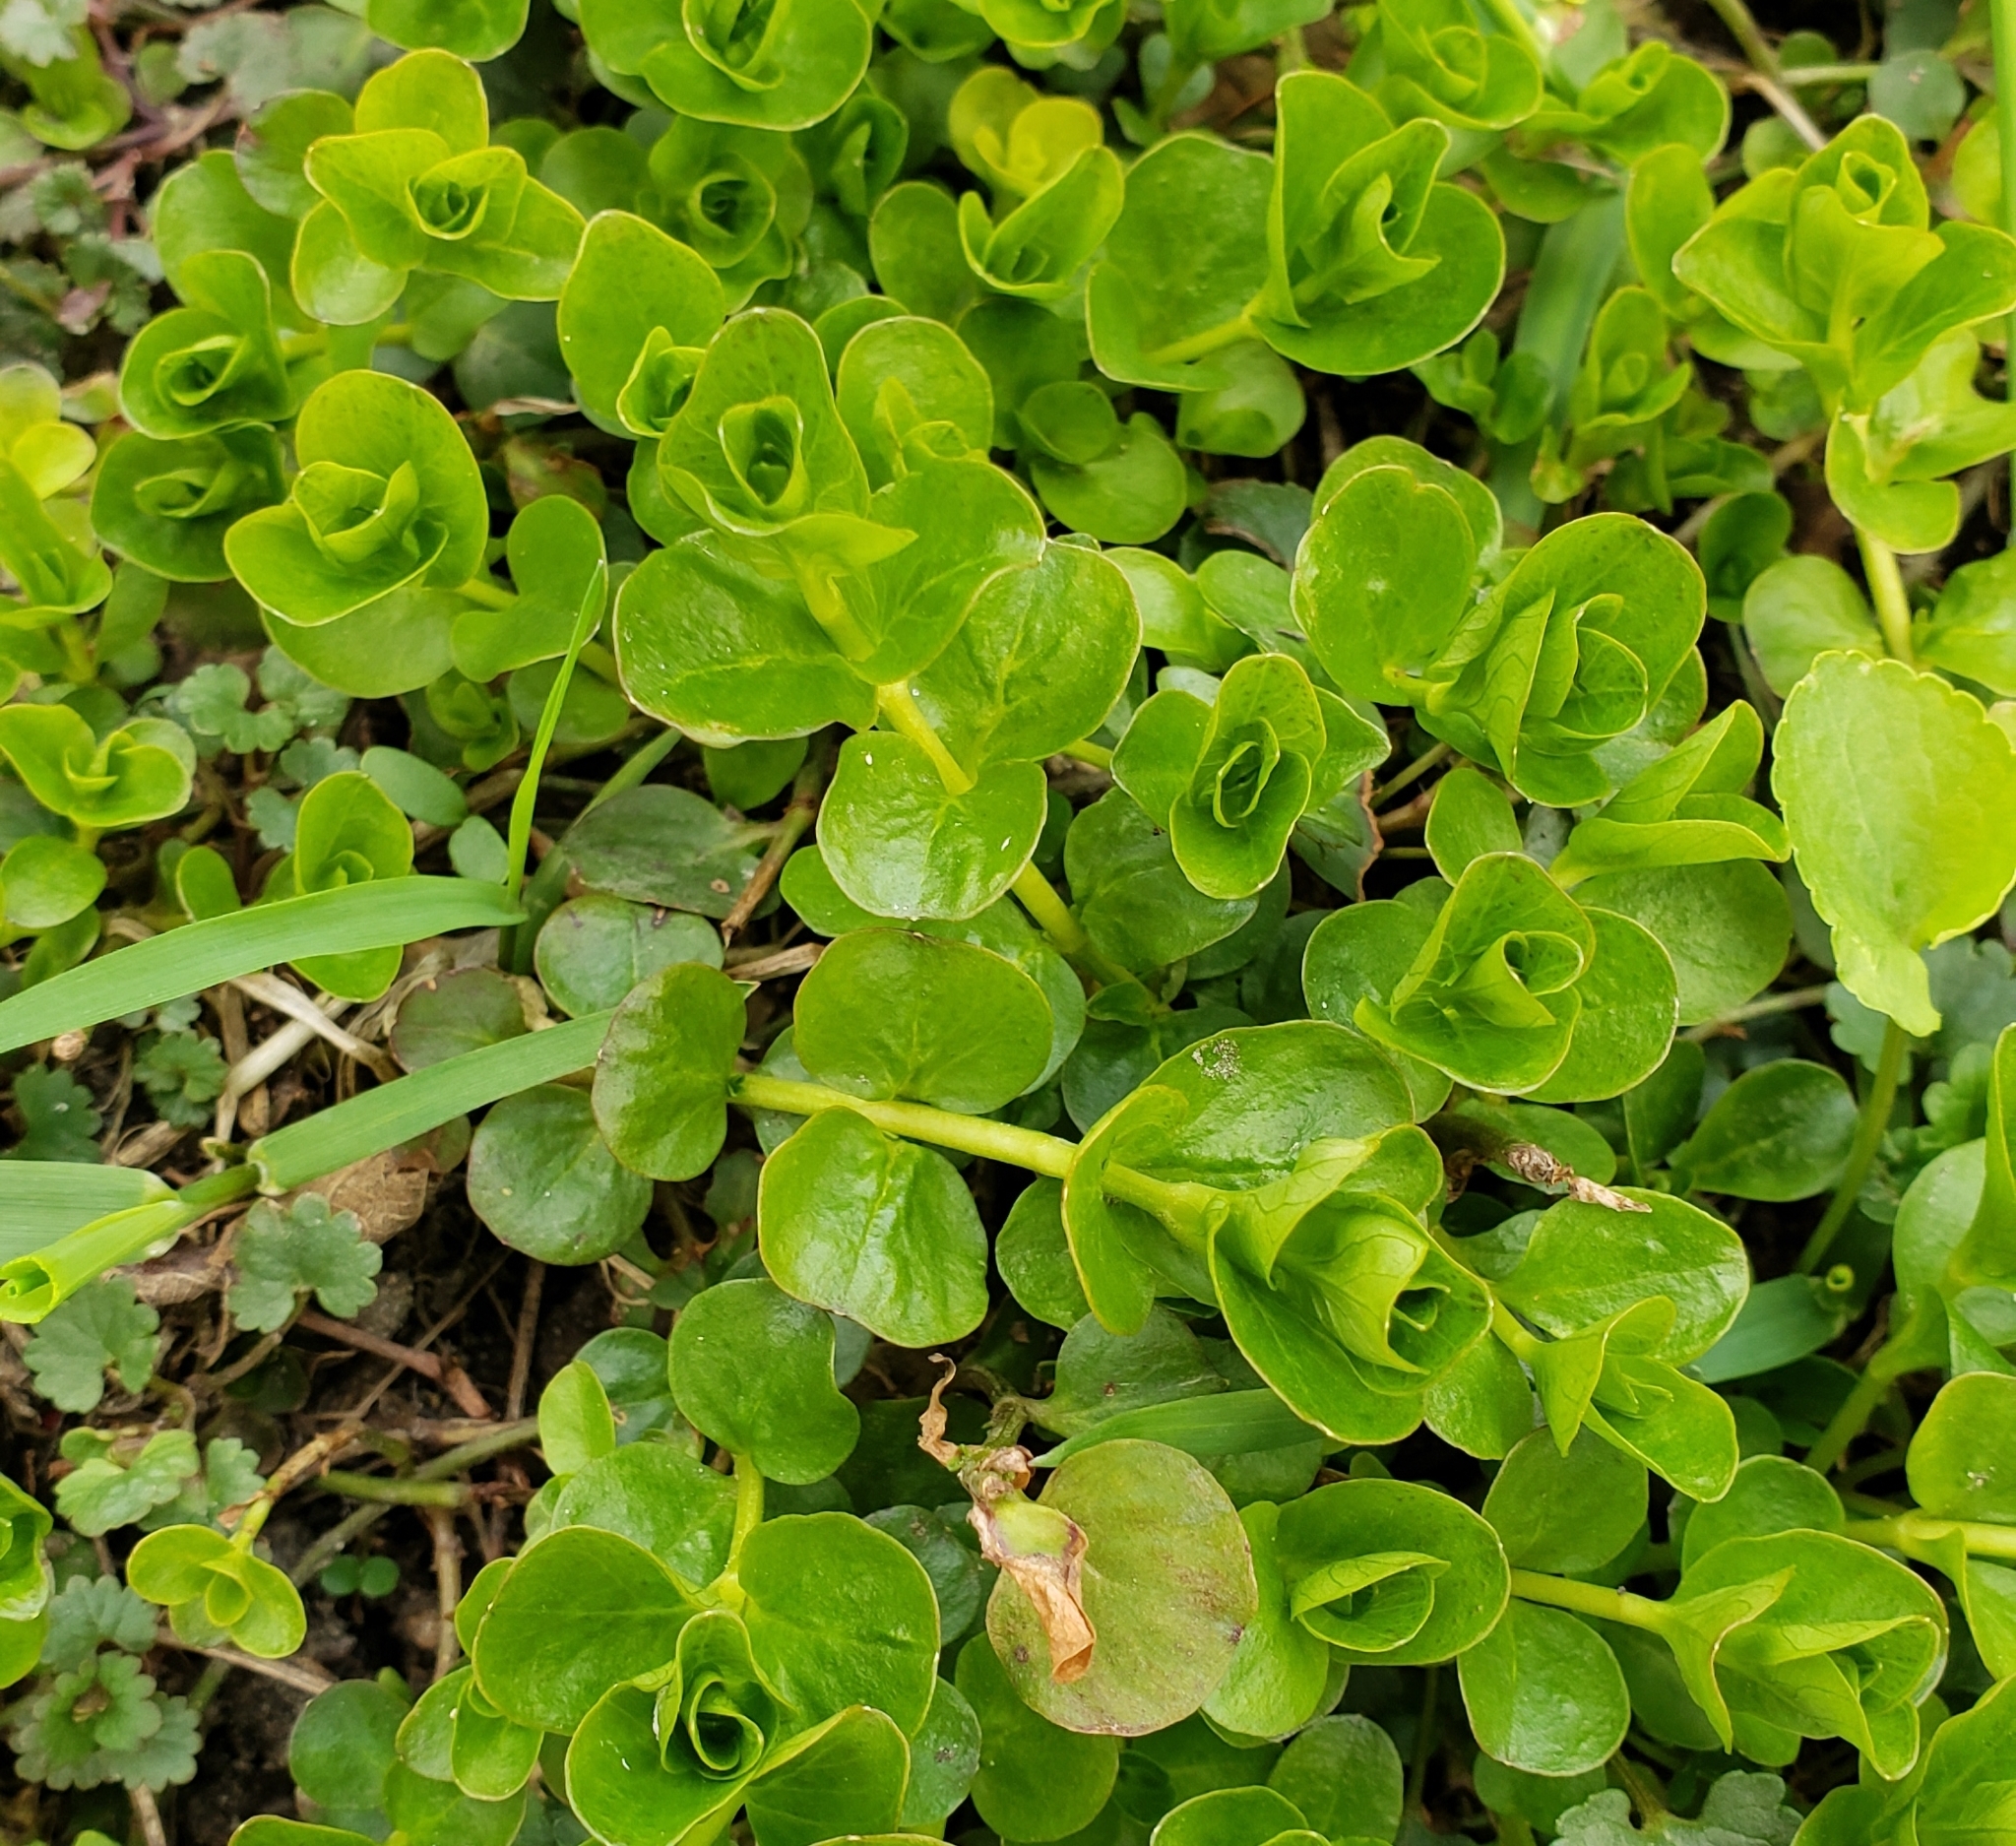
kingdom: Plantae
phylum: Tracheophyta
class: Magnoliopsida
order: Ericales
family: Primulaceae
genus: Lysimachia
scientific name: Lysimachia nummularia
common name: Moneywort
